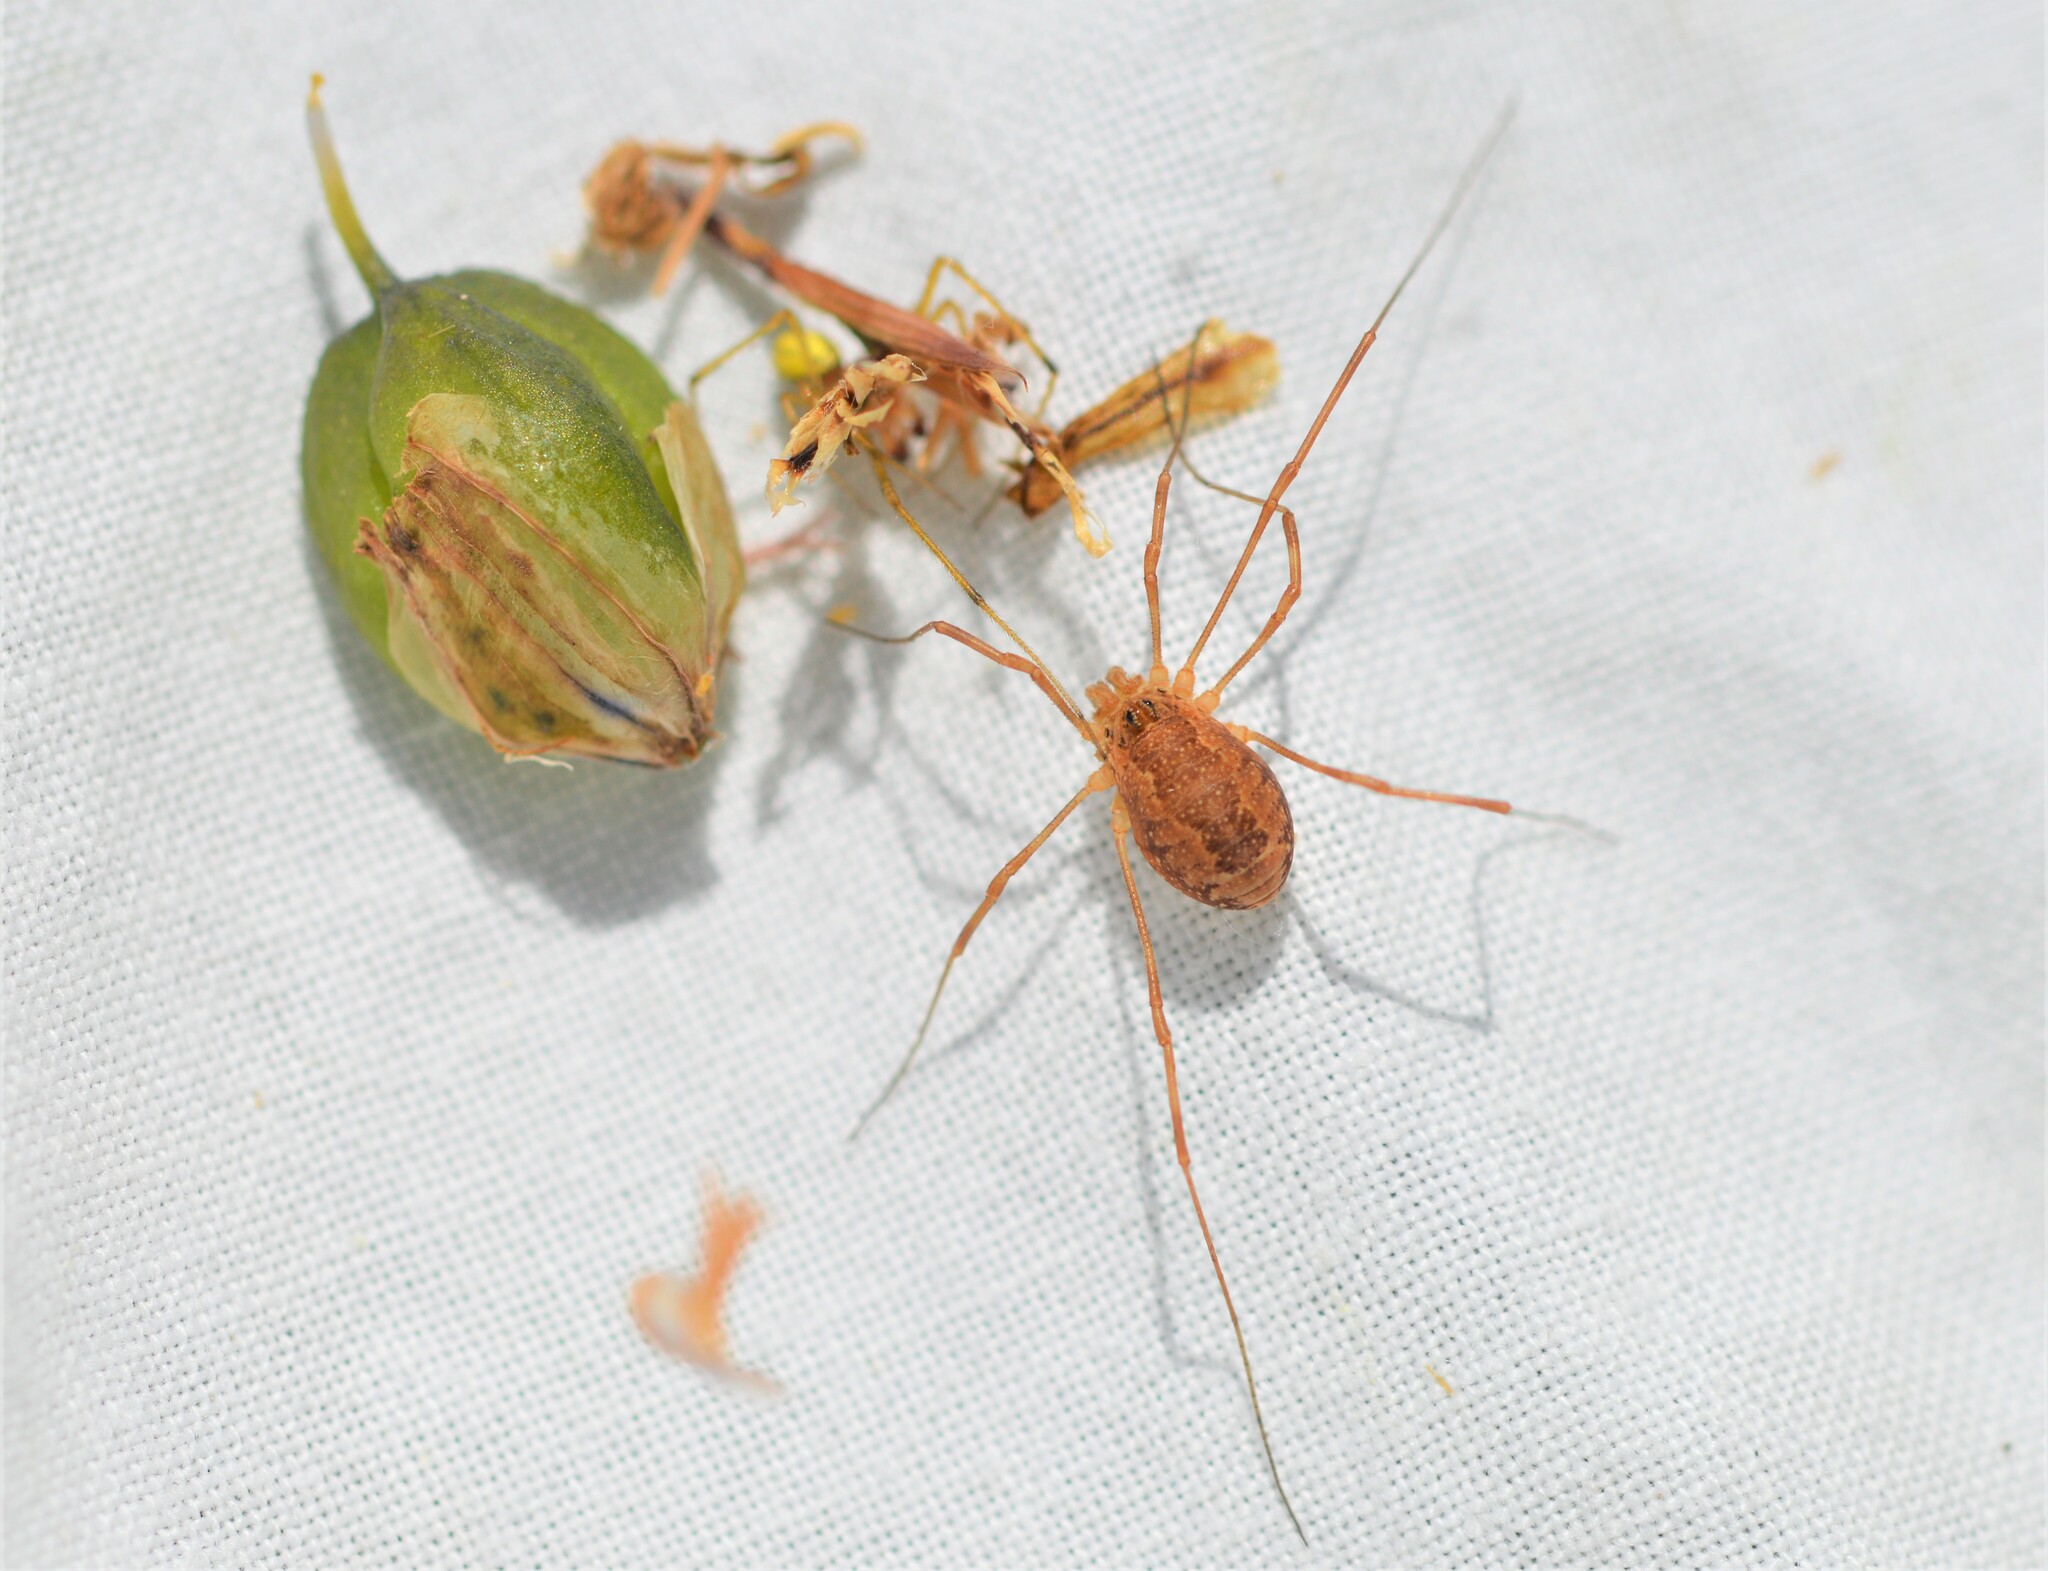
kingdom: Animalia
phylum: Arthropoda
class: Arachnida
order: Opiliones
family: Phalangiidae
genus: Rilaena
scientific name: Rilaena triangularis
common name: Spring harvestman
